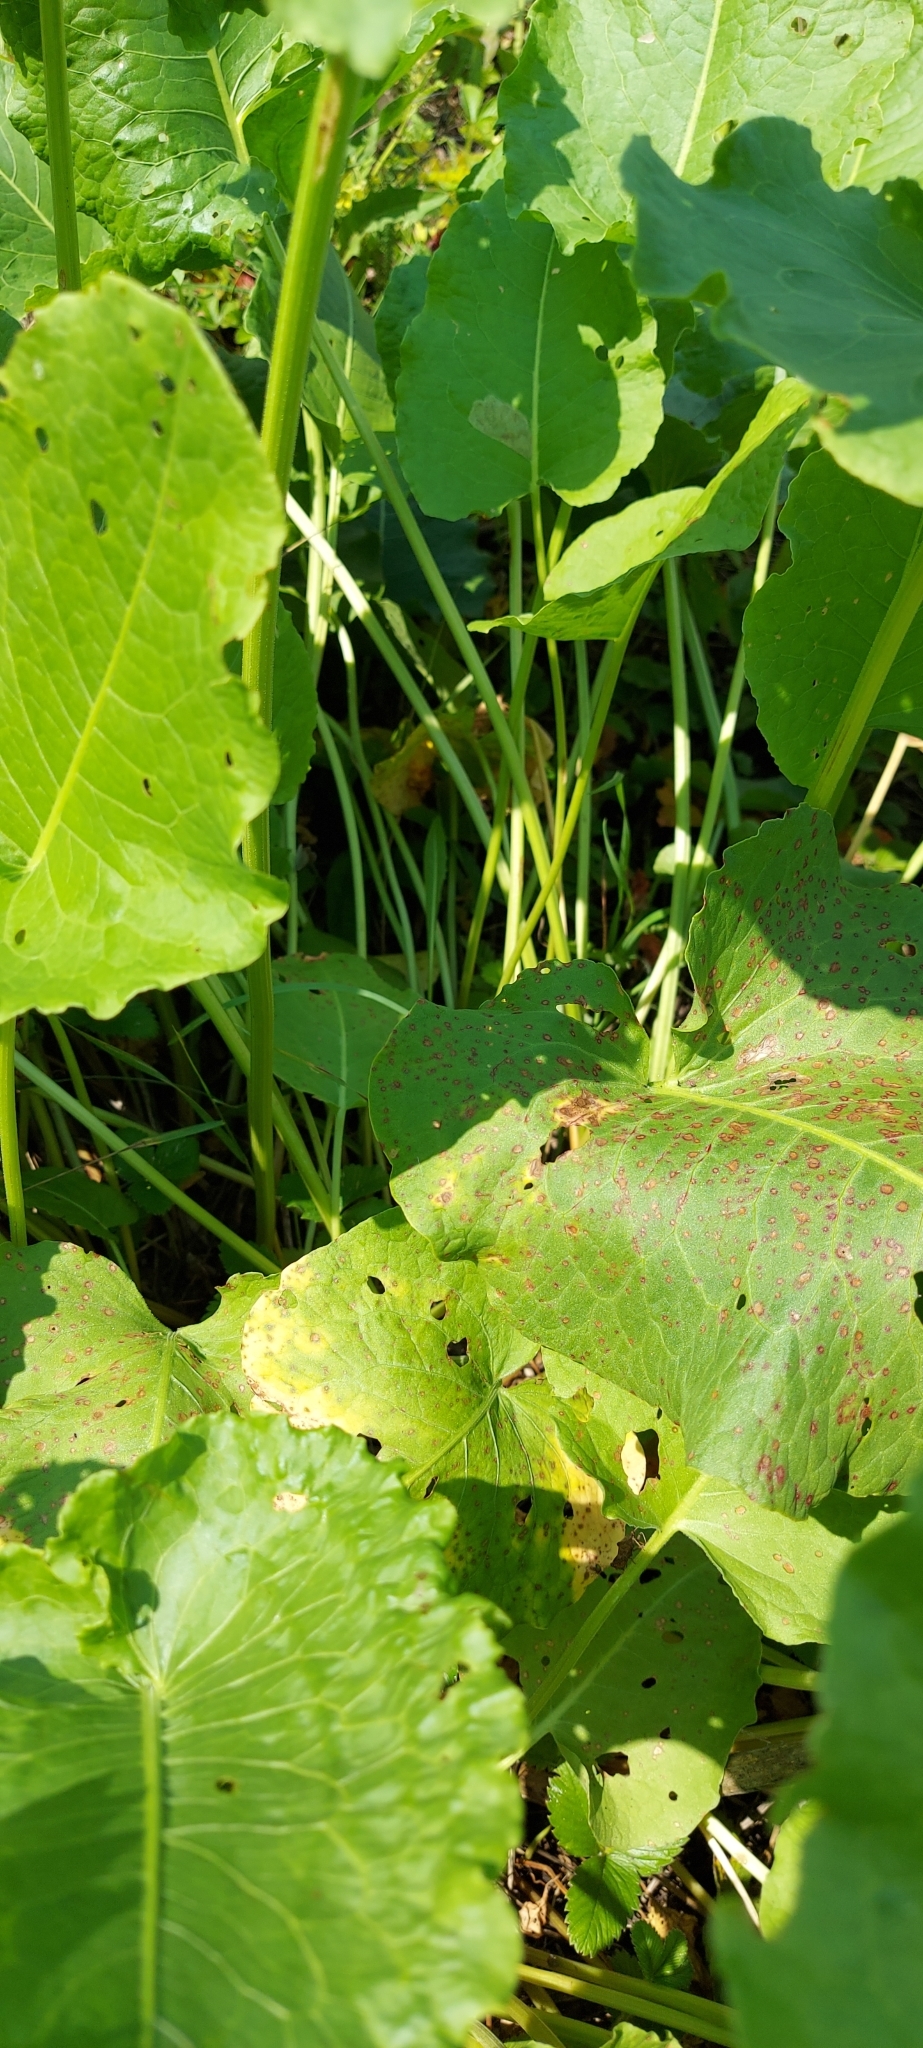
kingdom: Plantae
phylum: Tracheophyta
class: Magnoliopsida
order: Caryophyllales
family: Polygonaceae
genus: Rumex
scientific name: Rumex confertus
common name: Russian dock
